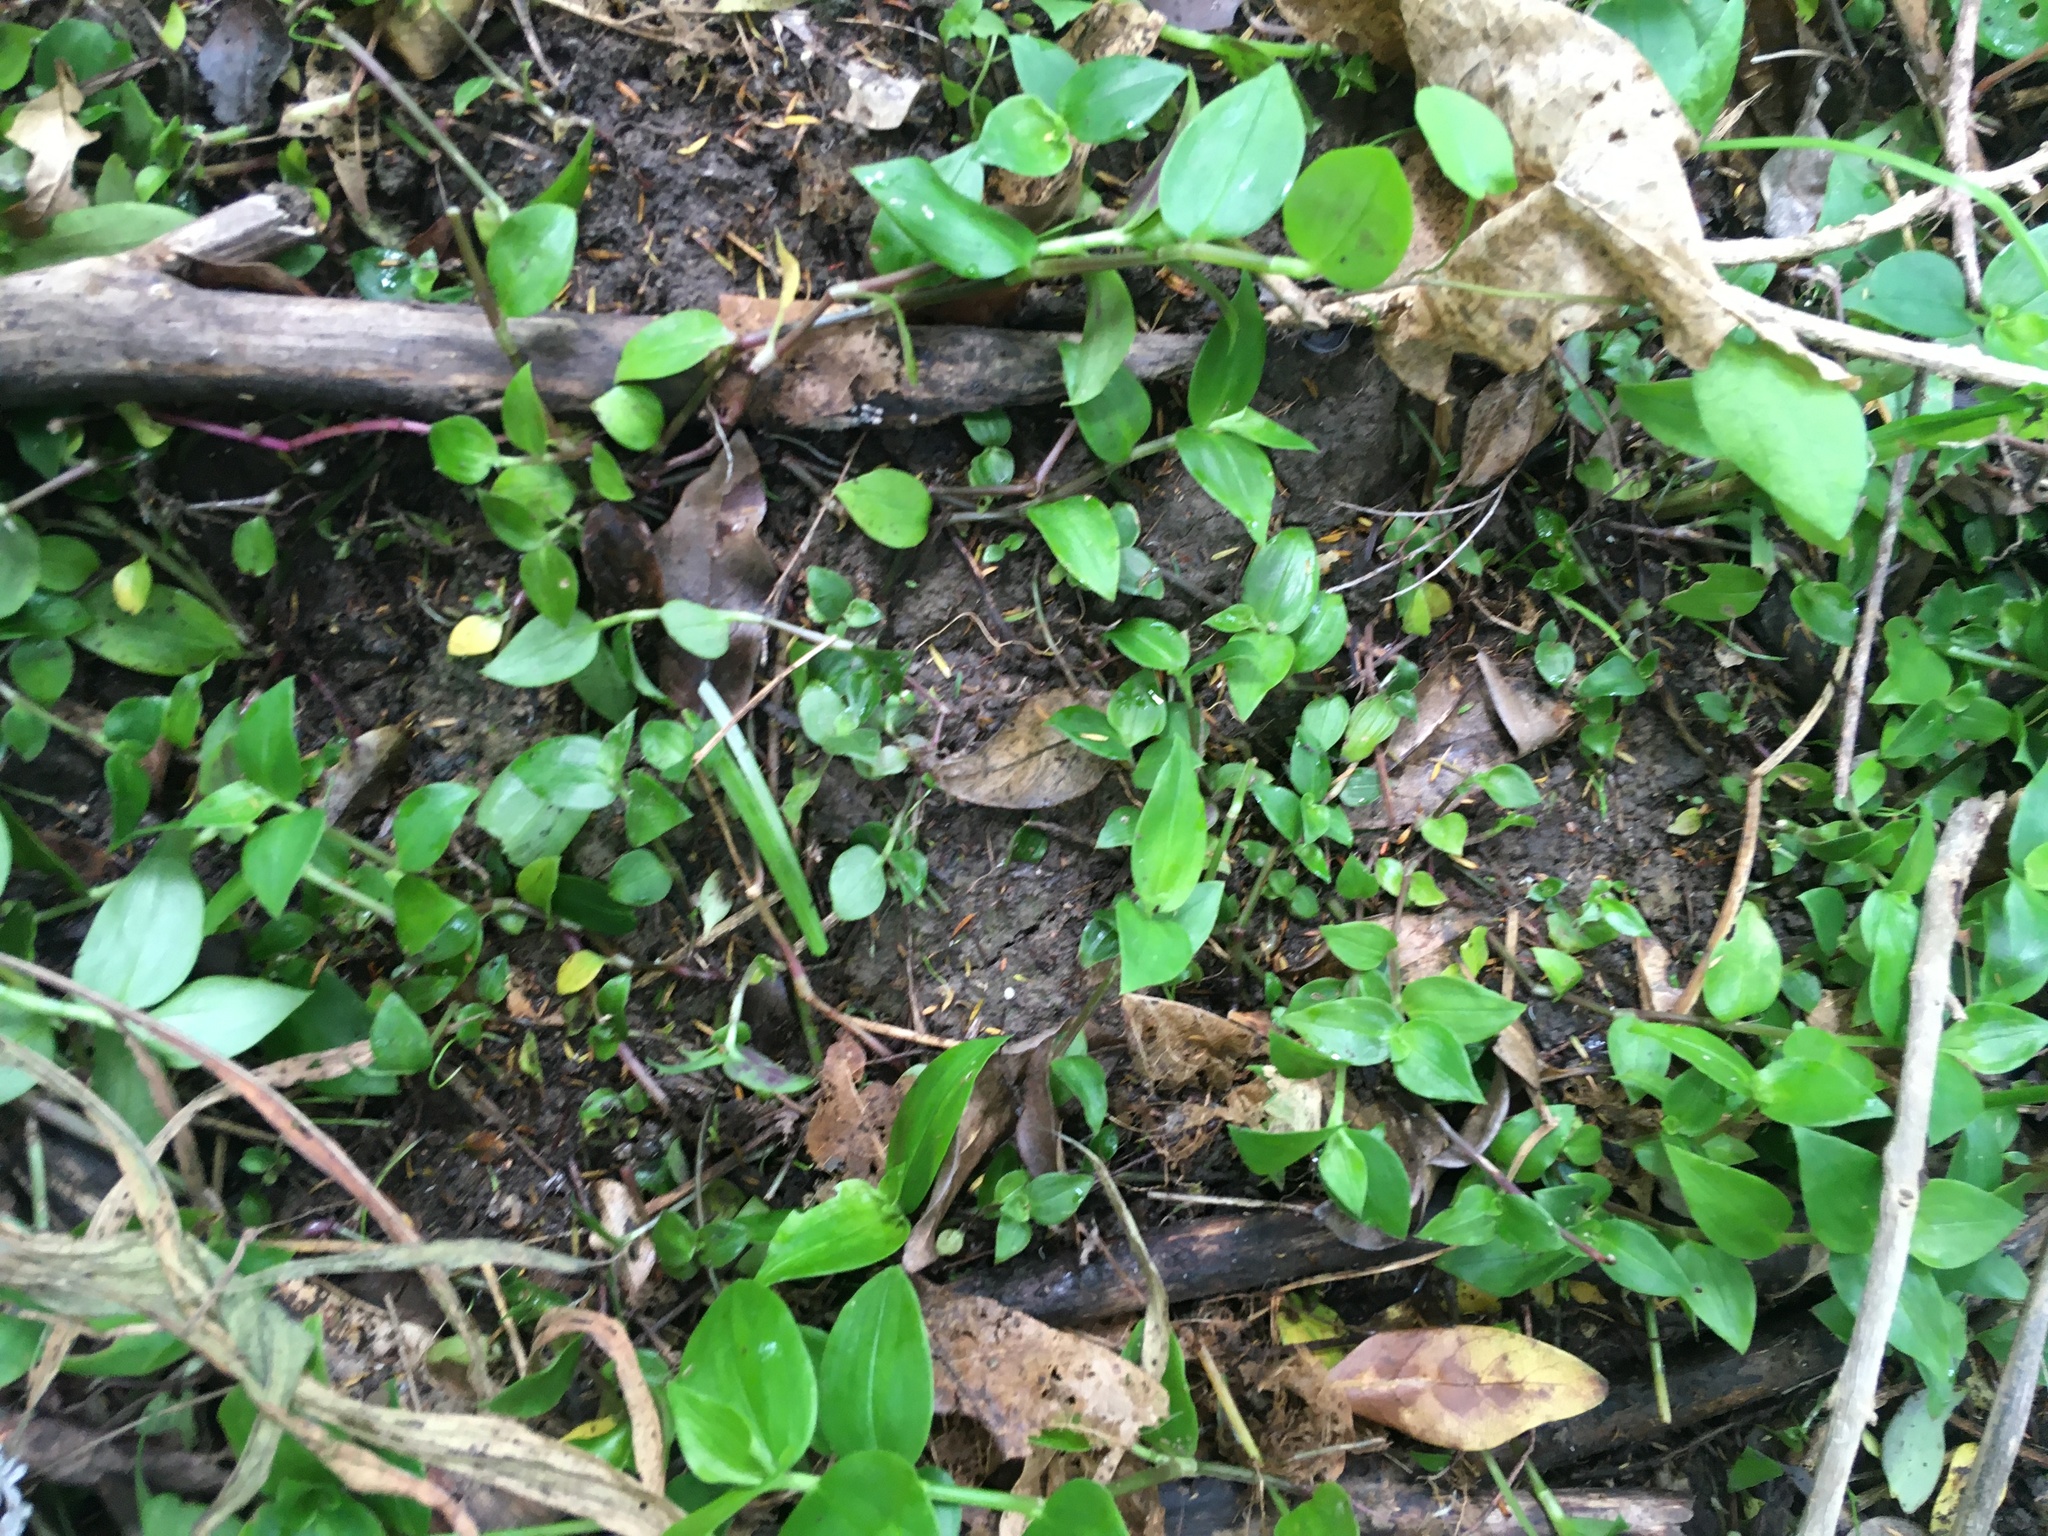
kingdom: Plantae
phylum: Tracheophyta
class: Liliopsida
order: Commelinales
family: Commelinaceae
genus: Tradescantia
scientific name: Tradescantia fluminensis
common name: Wandering-jew
